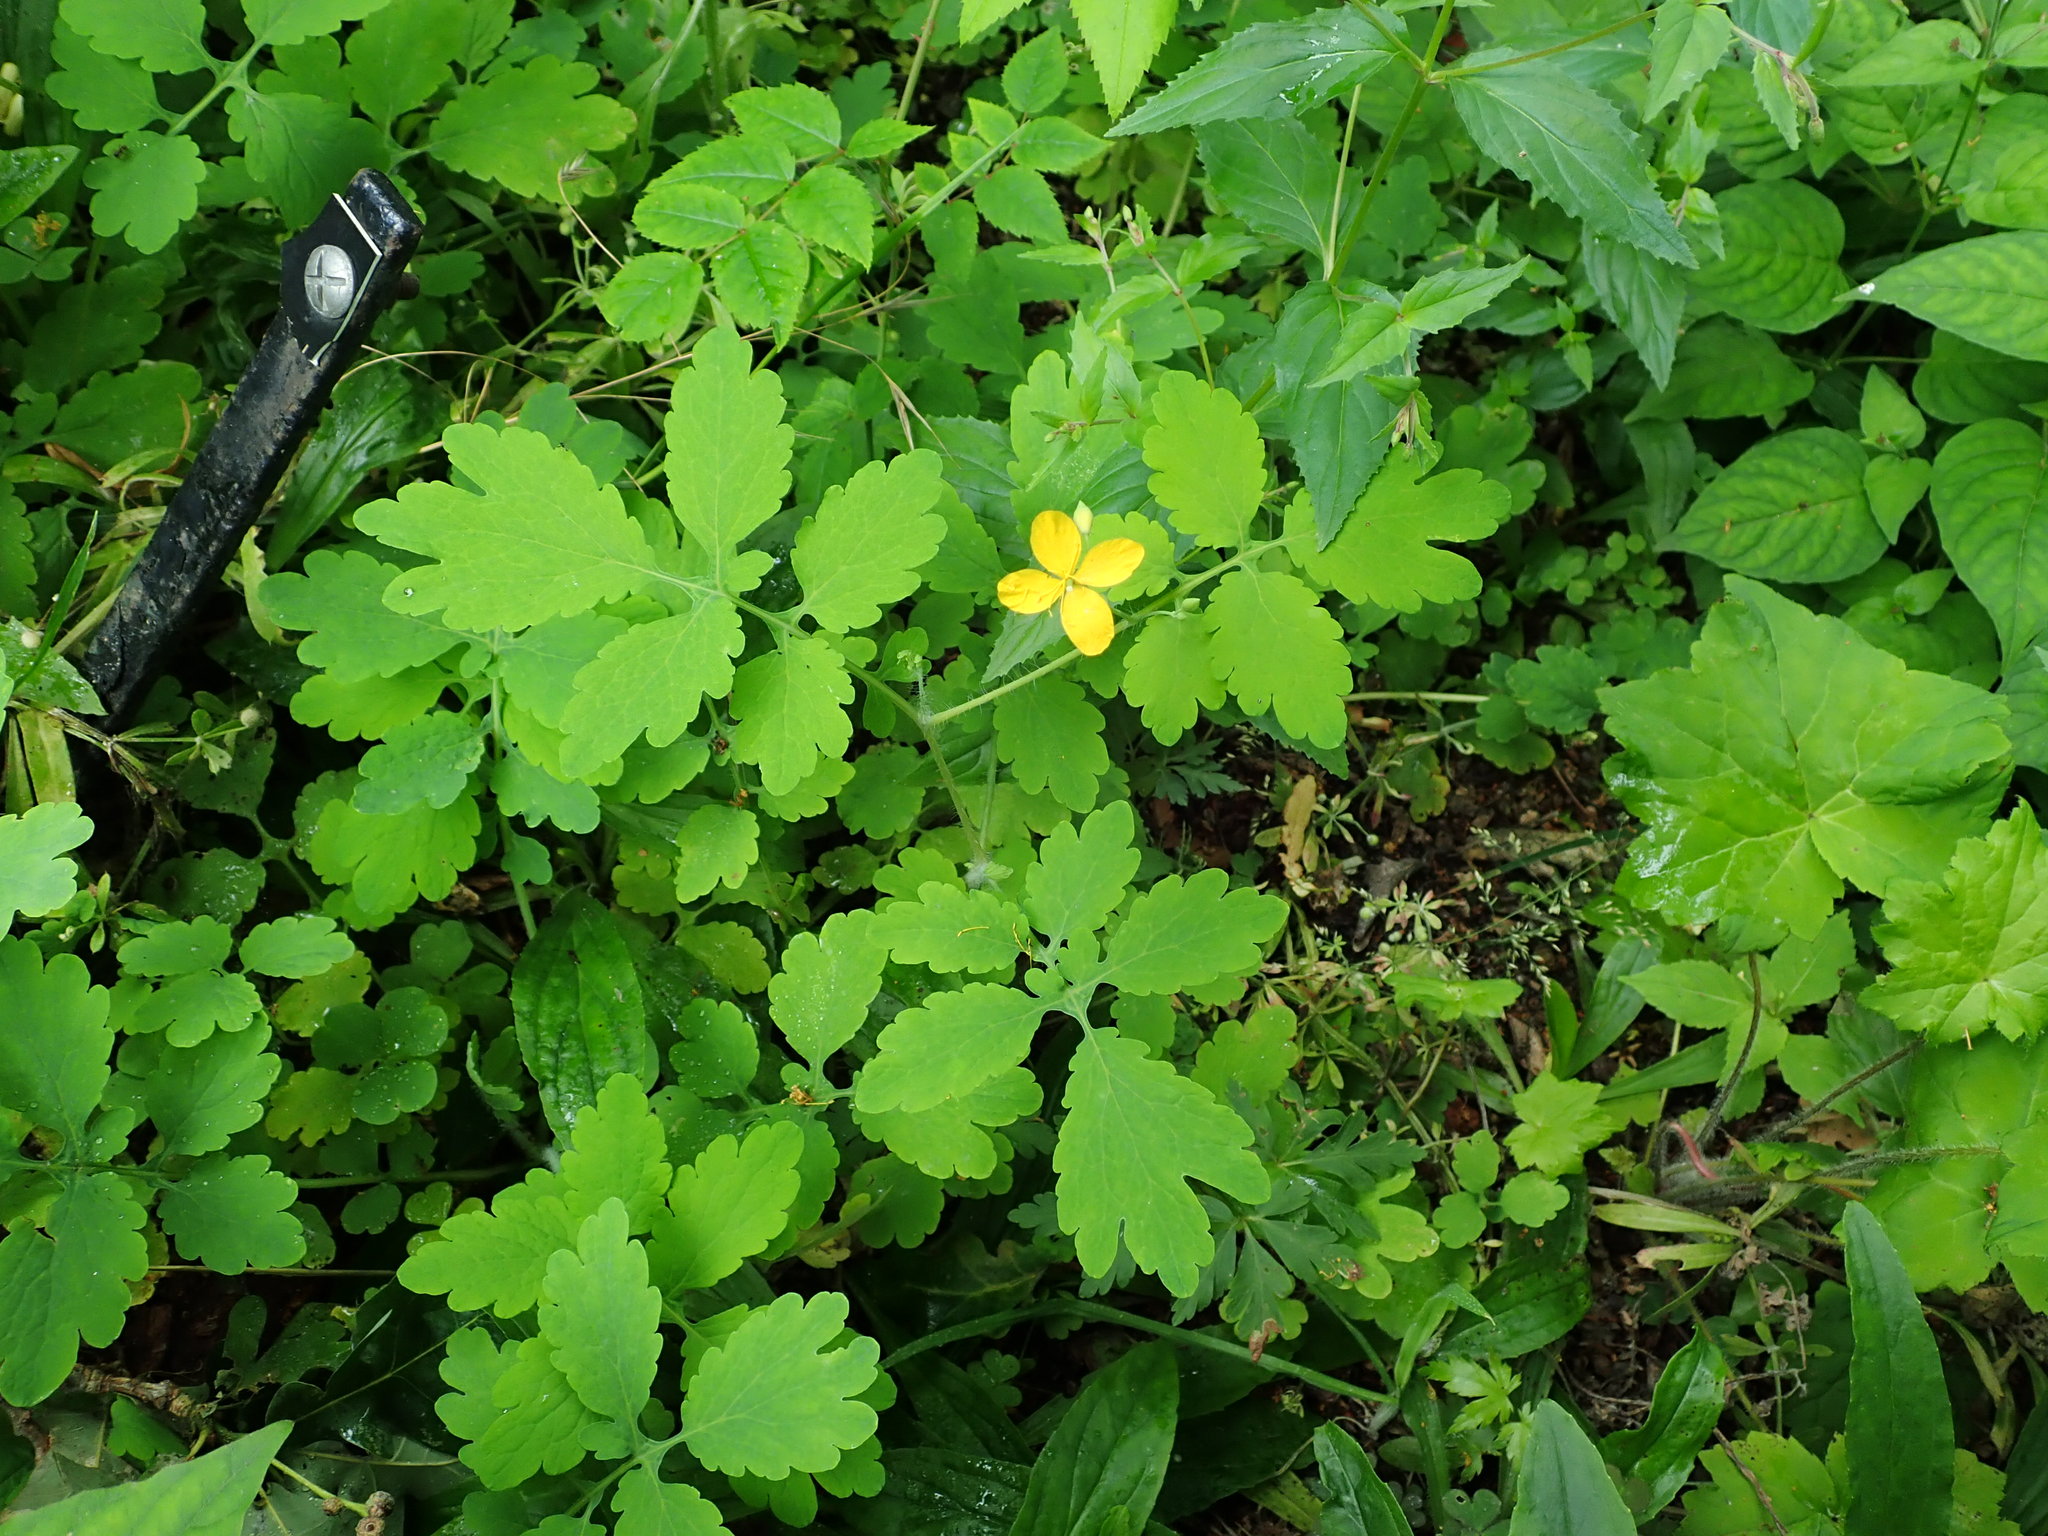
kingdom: Plantae
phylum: Tracheophyta
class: Magnoliopsida
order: Ranunculales
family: Papaveraceae
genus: Chelidonium
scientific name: Chelidonium majus
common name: Greater celandine
